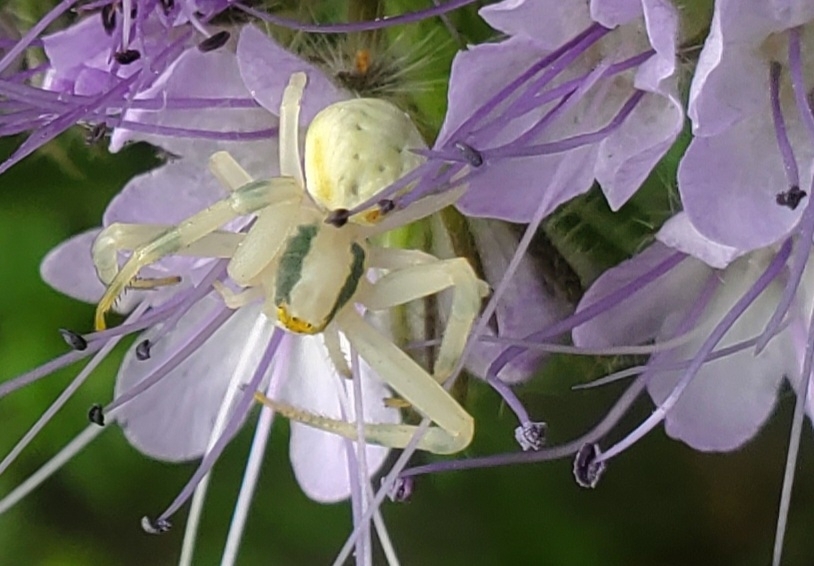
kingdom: Animalia
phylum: Arthropoda
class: Arachnida
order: Araneae
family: Thomisidae
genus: Misumena
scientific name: Misumena vatia
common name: Goldenrod crab spider
